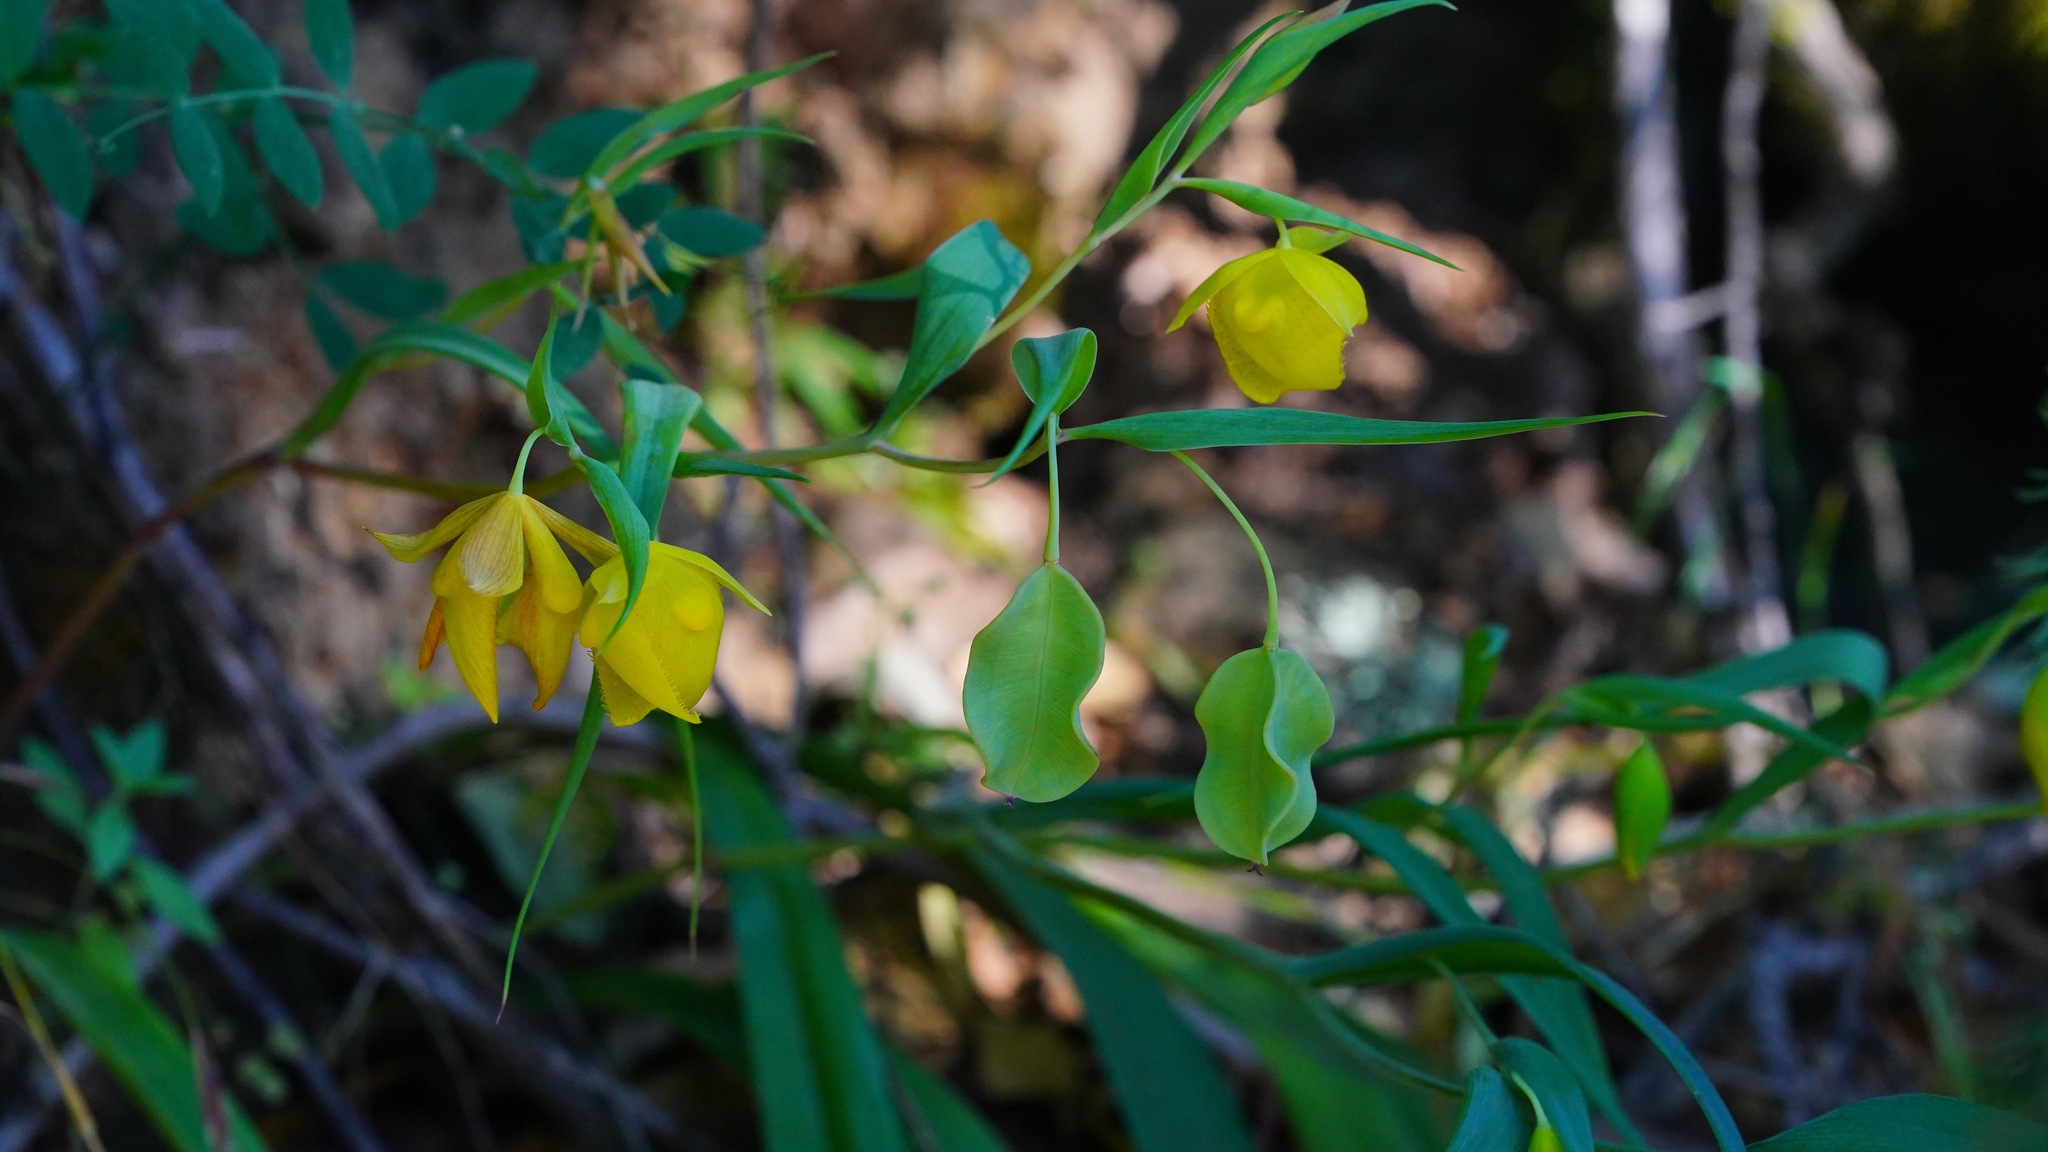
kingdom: Plantae
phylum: Tracheophyta
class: Liliopsida
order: Liliales
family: Liliaceae
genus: Calochortus
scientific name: Calochortus pulchellus
